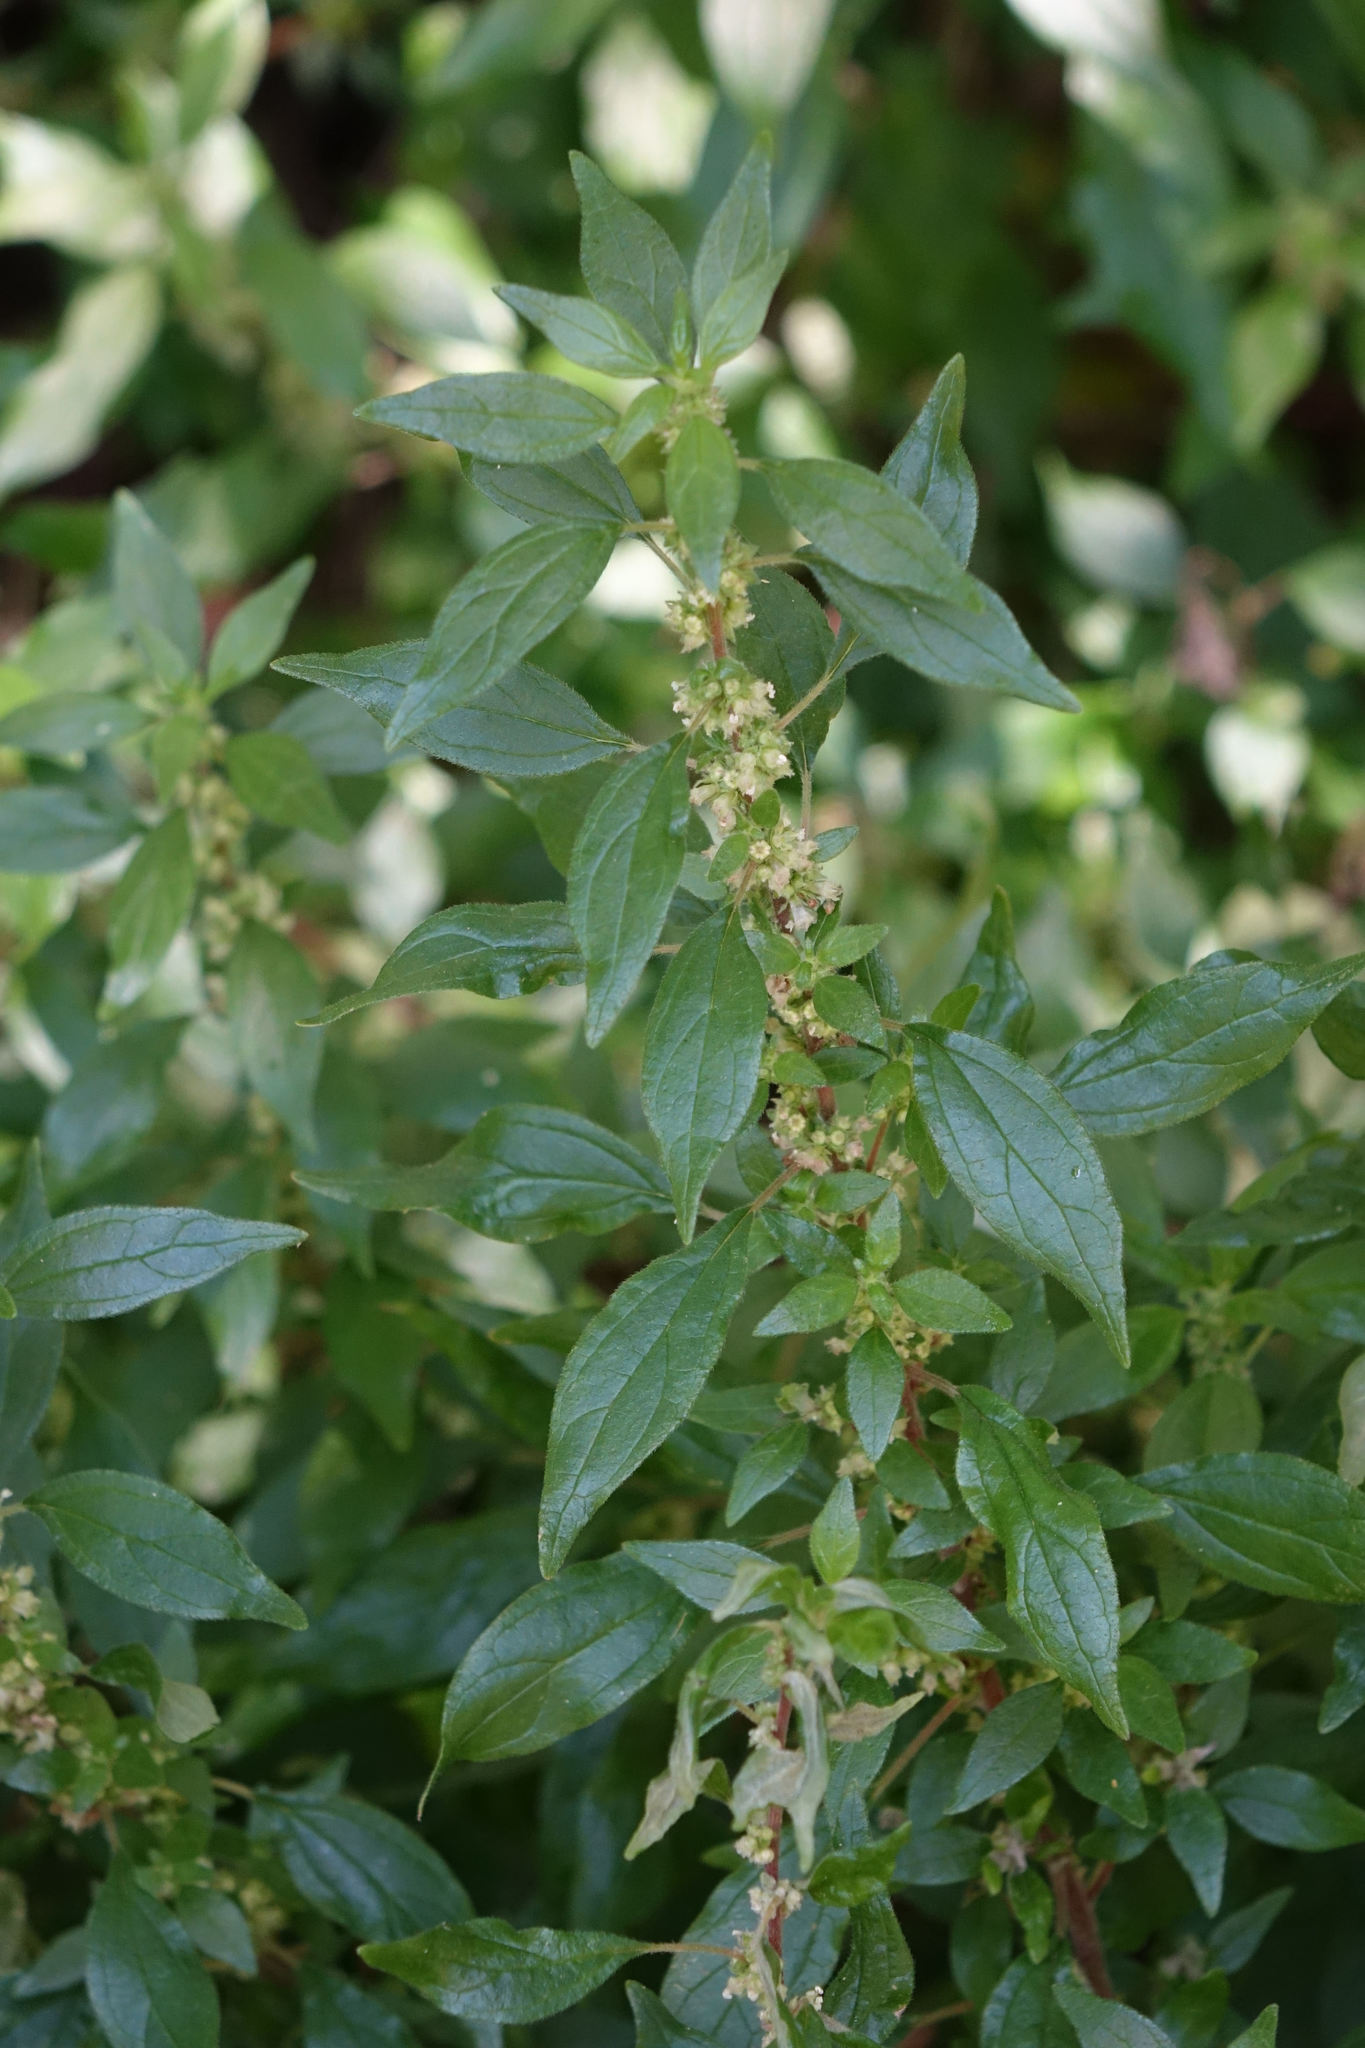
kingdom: Plantae
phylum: Tracheophyta
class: Magnoliopsida
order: Rosales
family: Urticaceae
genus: Parietaria
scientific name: Parietaria judaica
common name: Pellitory-of-the-wall
